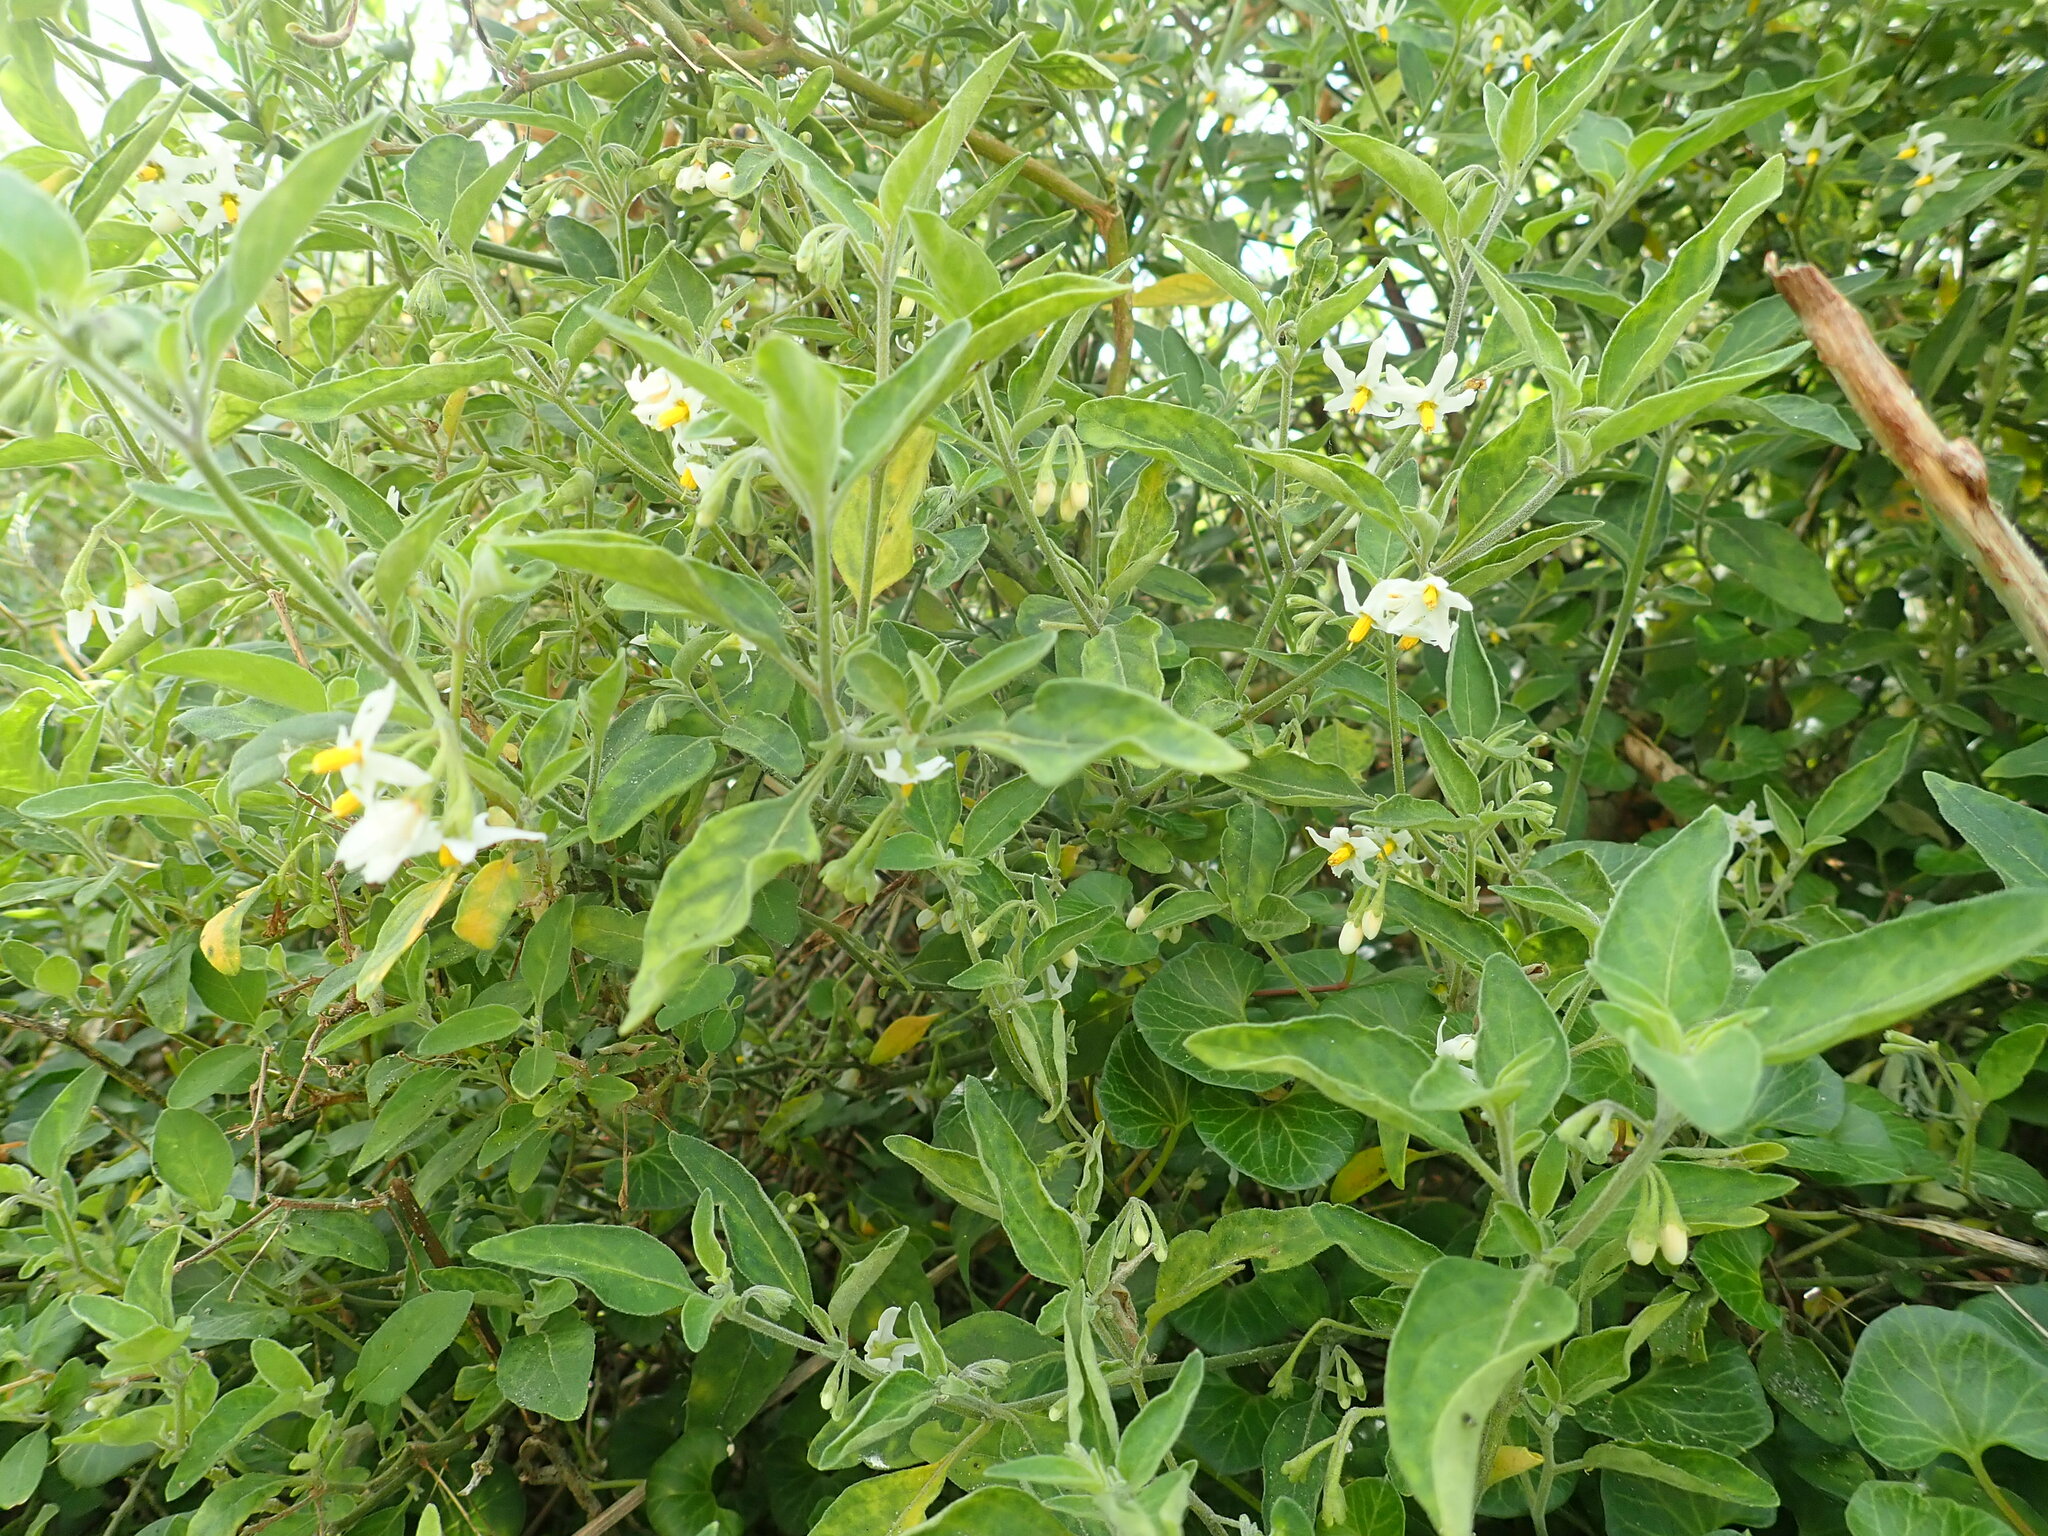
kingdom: Plantae
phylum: Tracheophyta
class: Magnoliopsida
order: Solanales
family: Solanaceae
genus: Solanum
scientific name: Solanum chenopodioides
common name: Tall nightshade
